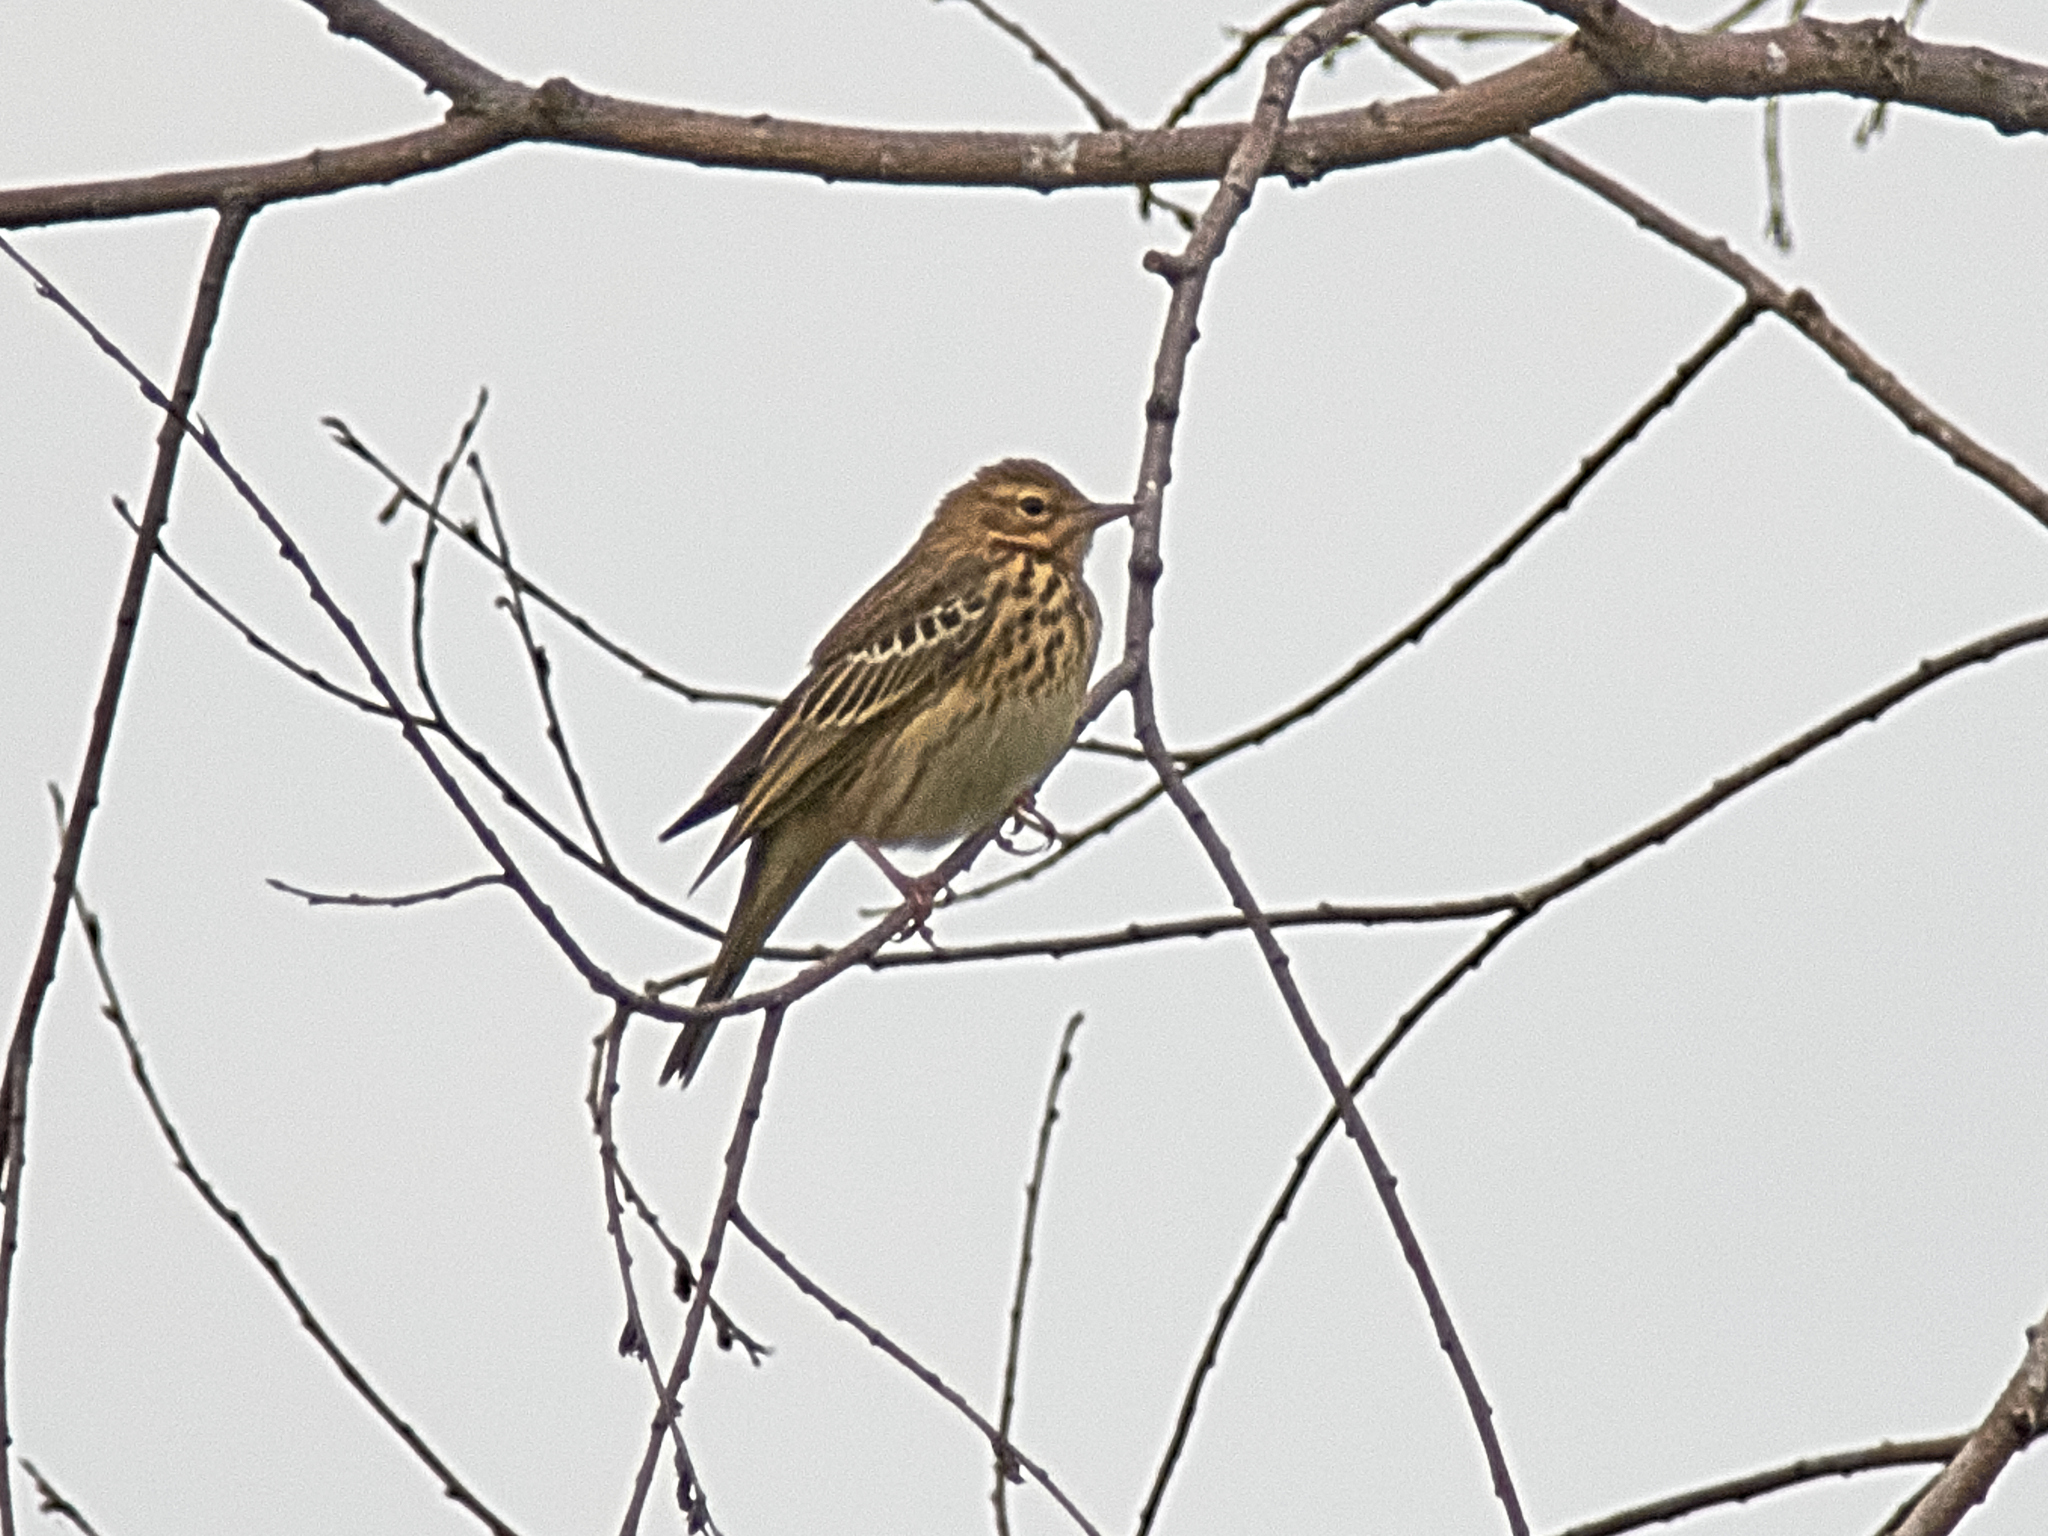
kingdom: Animalia
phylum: Chordata
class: Aves
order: Passeriformes
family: Motacillidae
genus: Anthus
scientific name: Anthus trivialis
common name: Tree pipit
